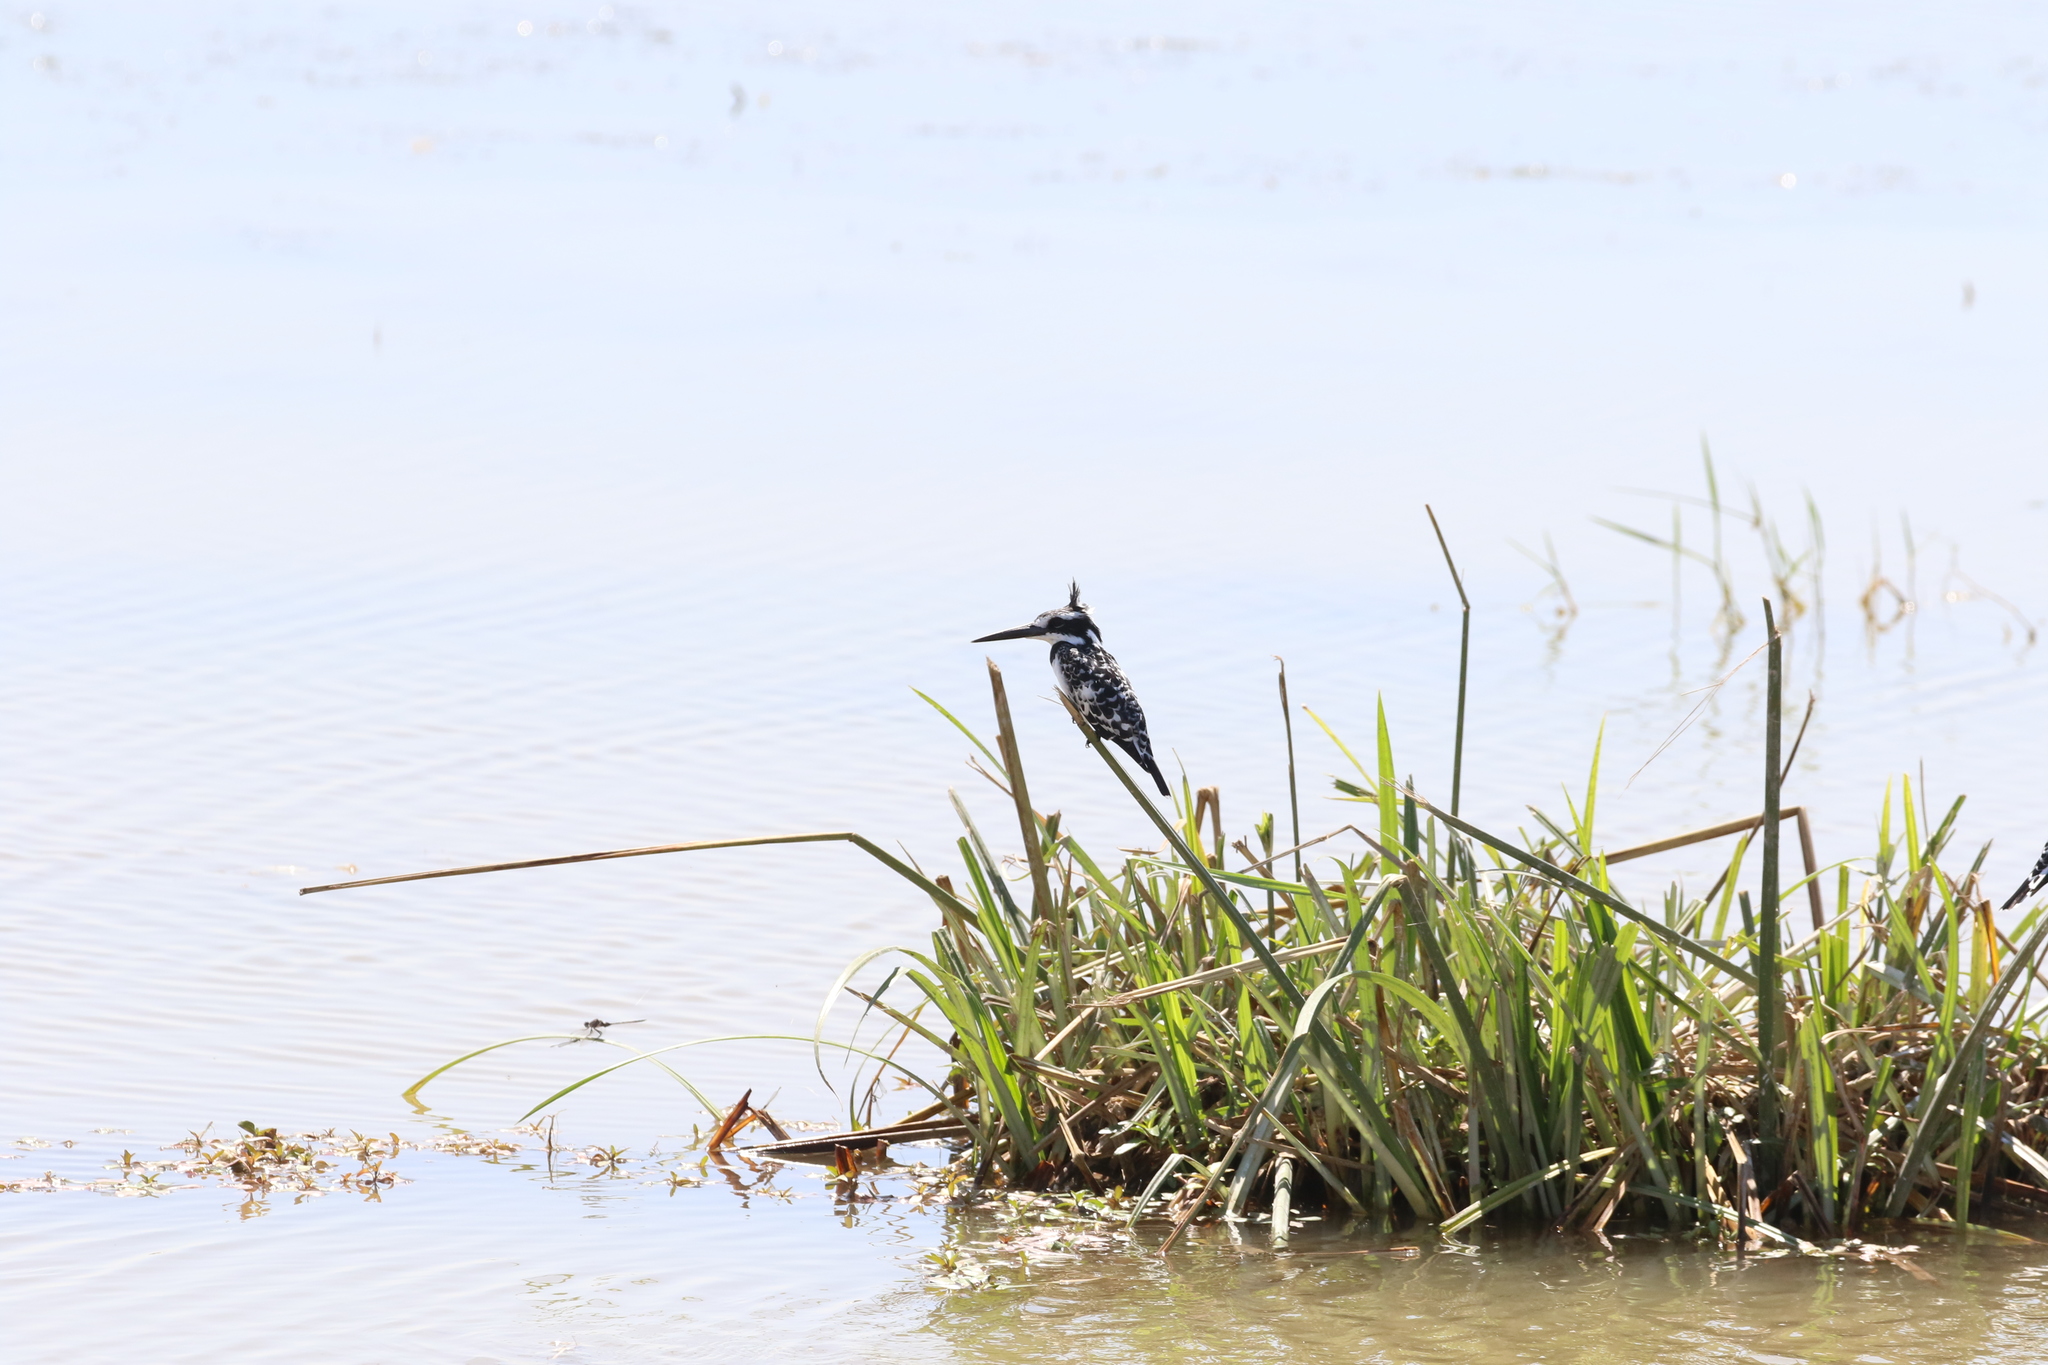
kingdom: Animalia
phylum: Chordata
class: Aves
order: Coraciiformes
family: Alcedinidae
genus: Ceryle
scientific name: Ceryle rudis
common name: Pied kingfisher
